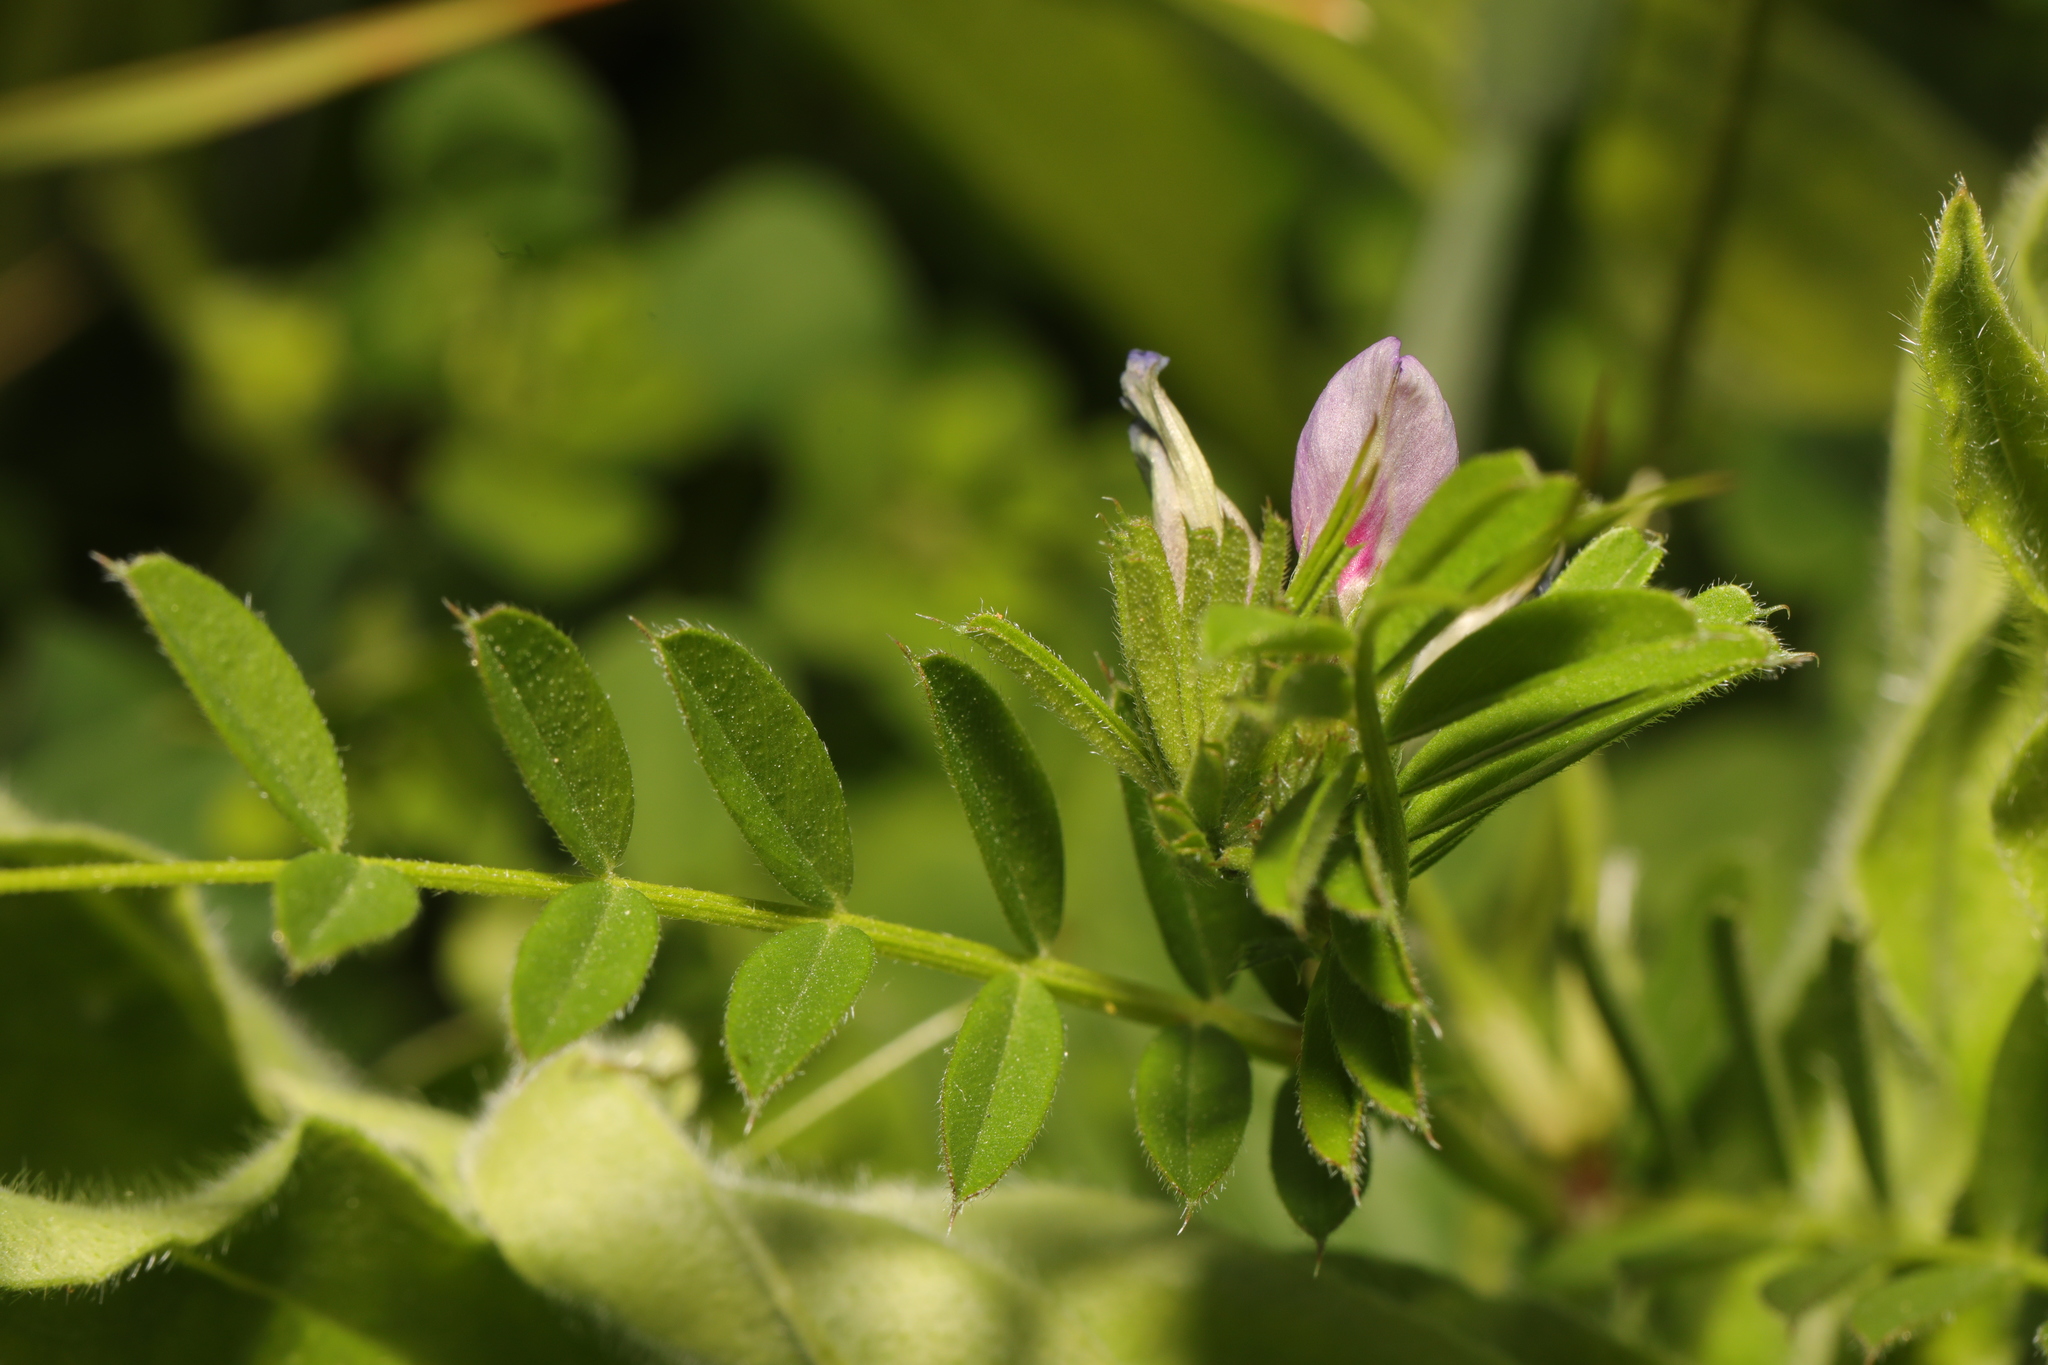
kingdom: Plantae
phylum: Tracheophyta
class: Magnoliopsida
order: Fabales
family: Fabaceae
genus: Vicia
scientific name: Vicia sativa
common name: Garden vetch
